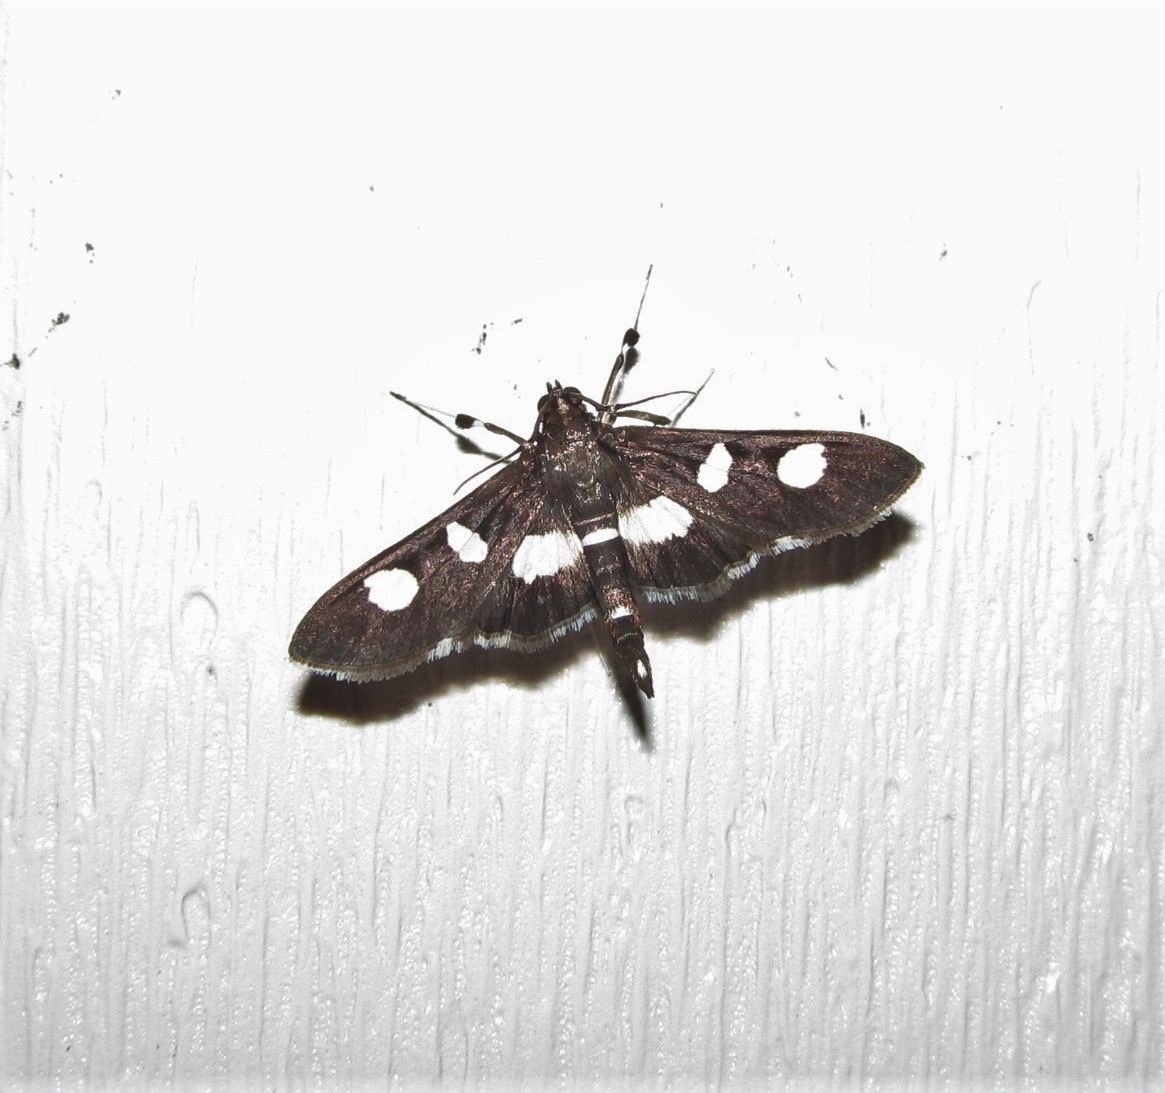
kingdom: Animalia
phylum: Arthropoda
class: Insecta
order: Lepidoptera
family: Crambidae
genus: Desmia
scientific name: Desmia
